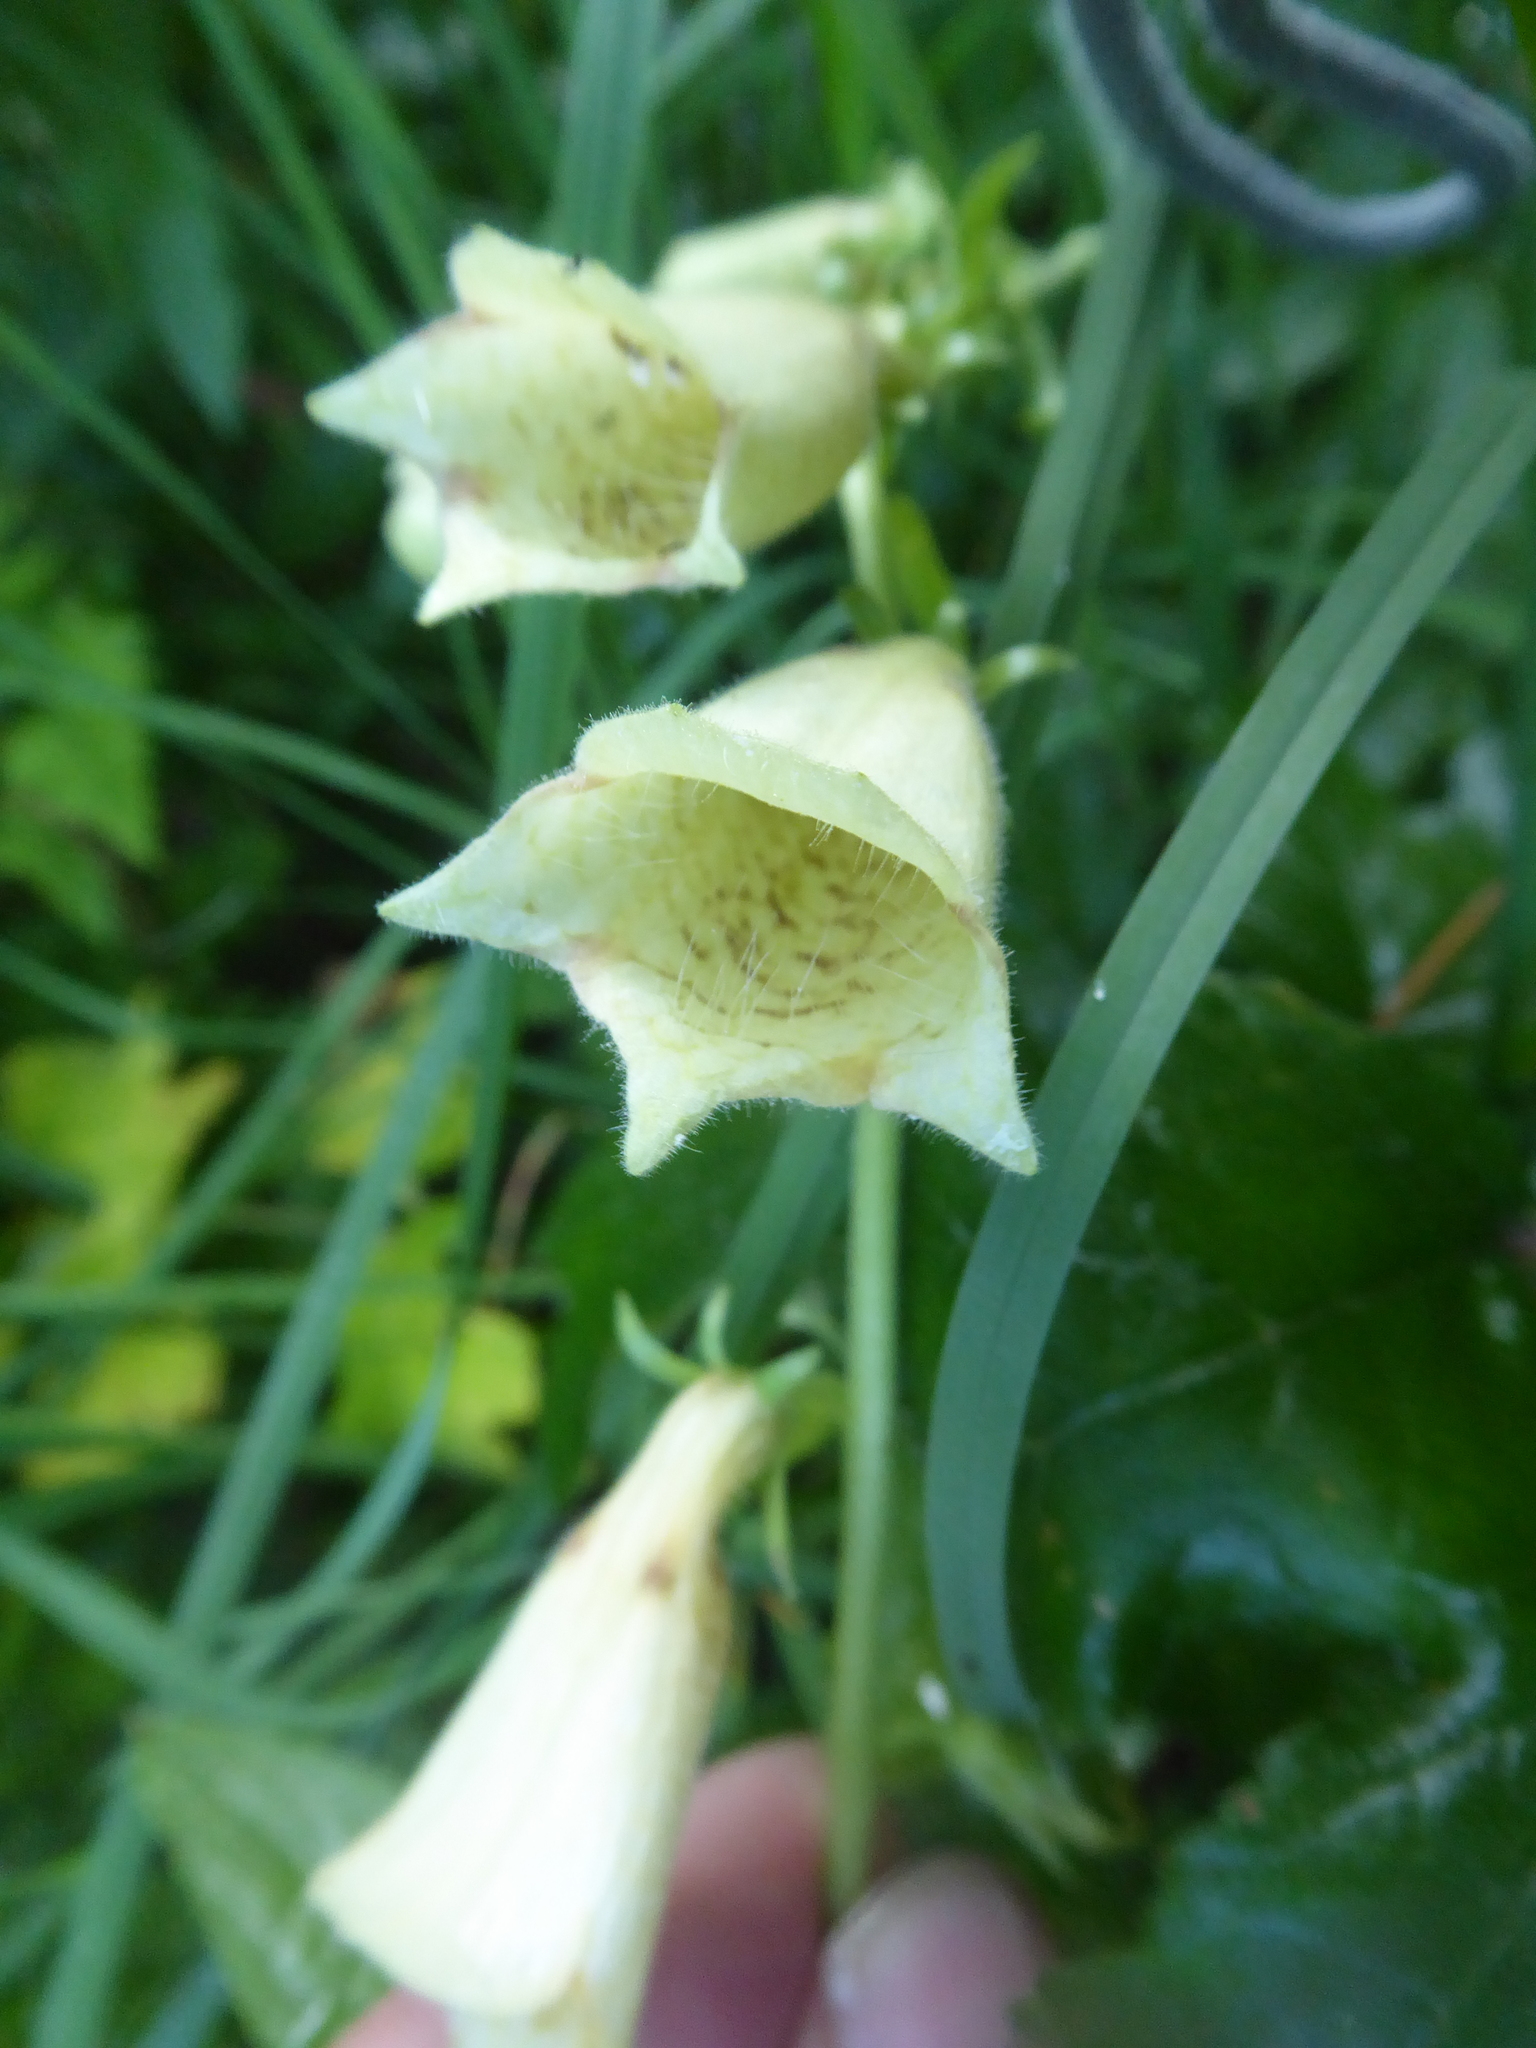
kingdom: Plantae
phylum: Tracheophyta
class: Magnoliopsida
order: Lamiales
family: Plantaginaceae
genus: Digitalis
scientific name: Digitalis grandiflora
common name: Yellow foxglove
